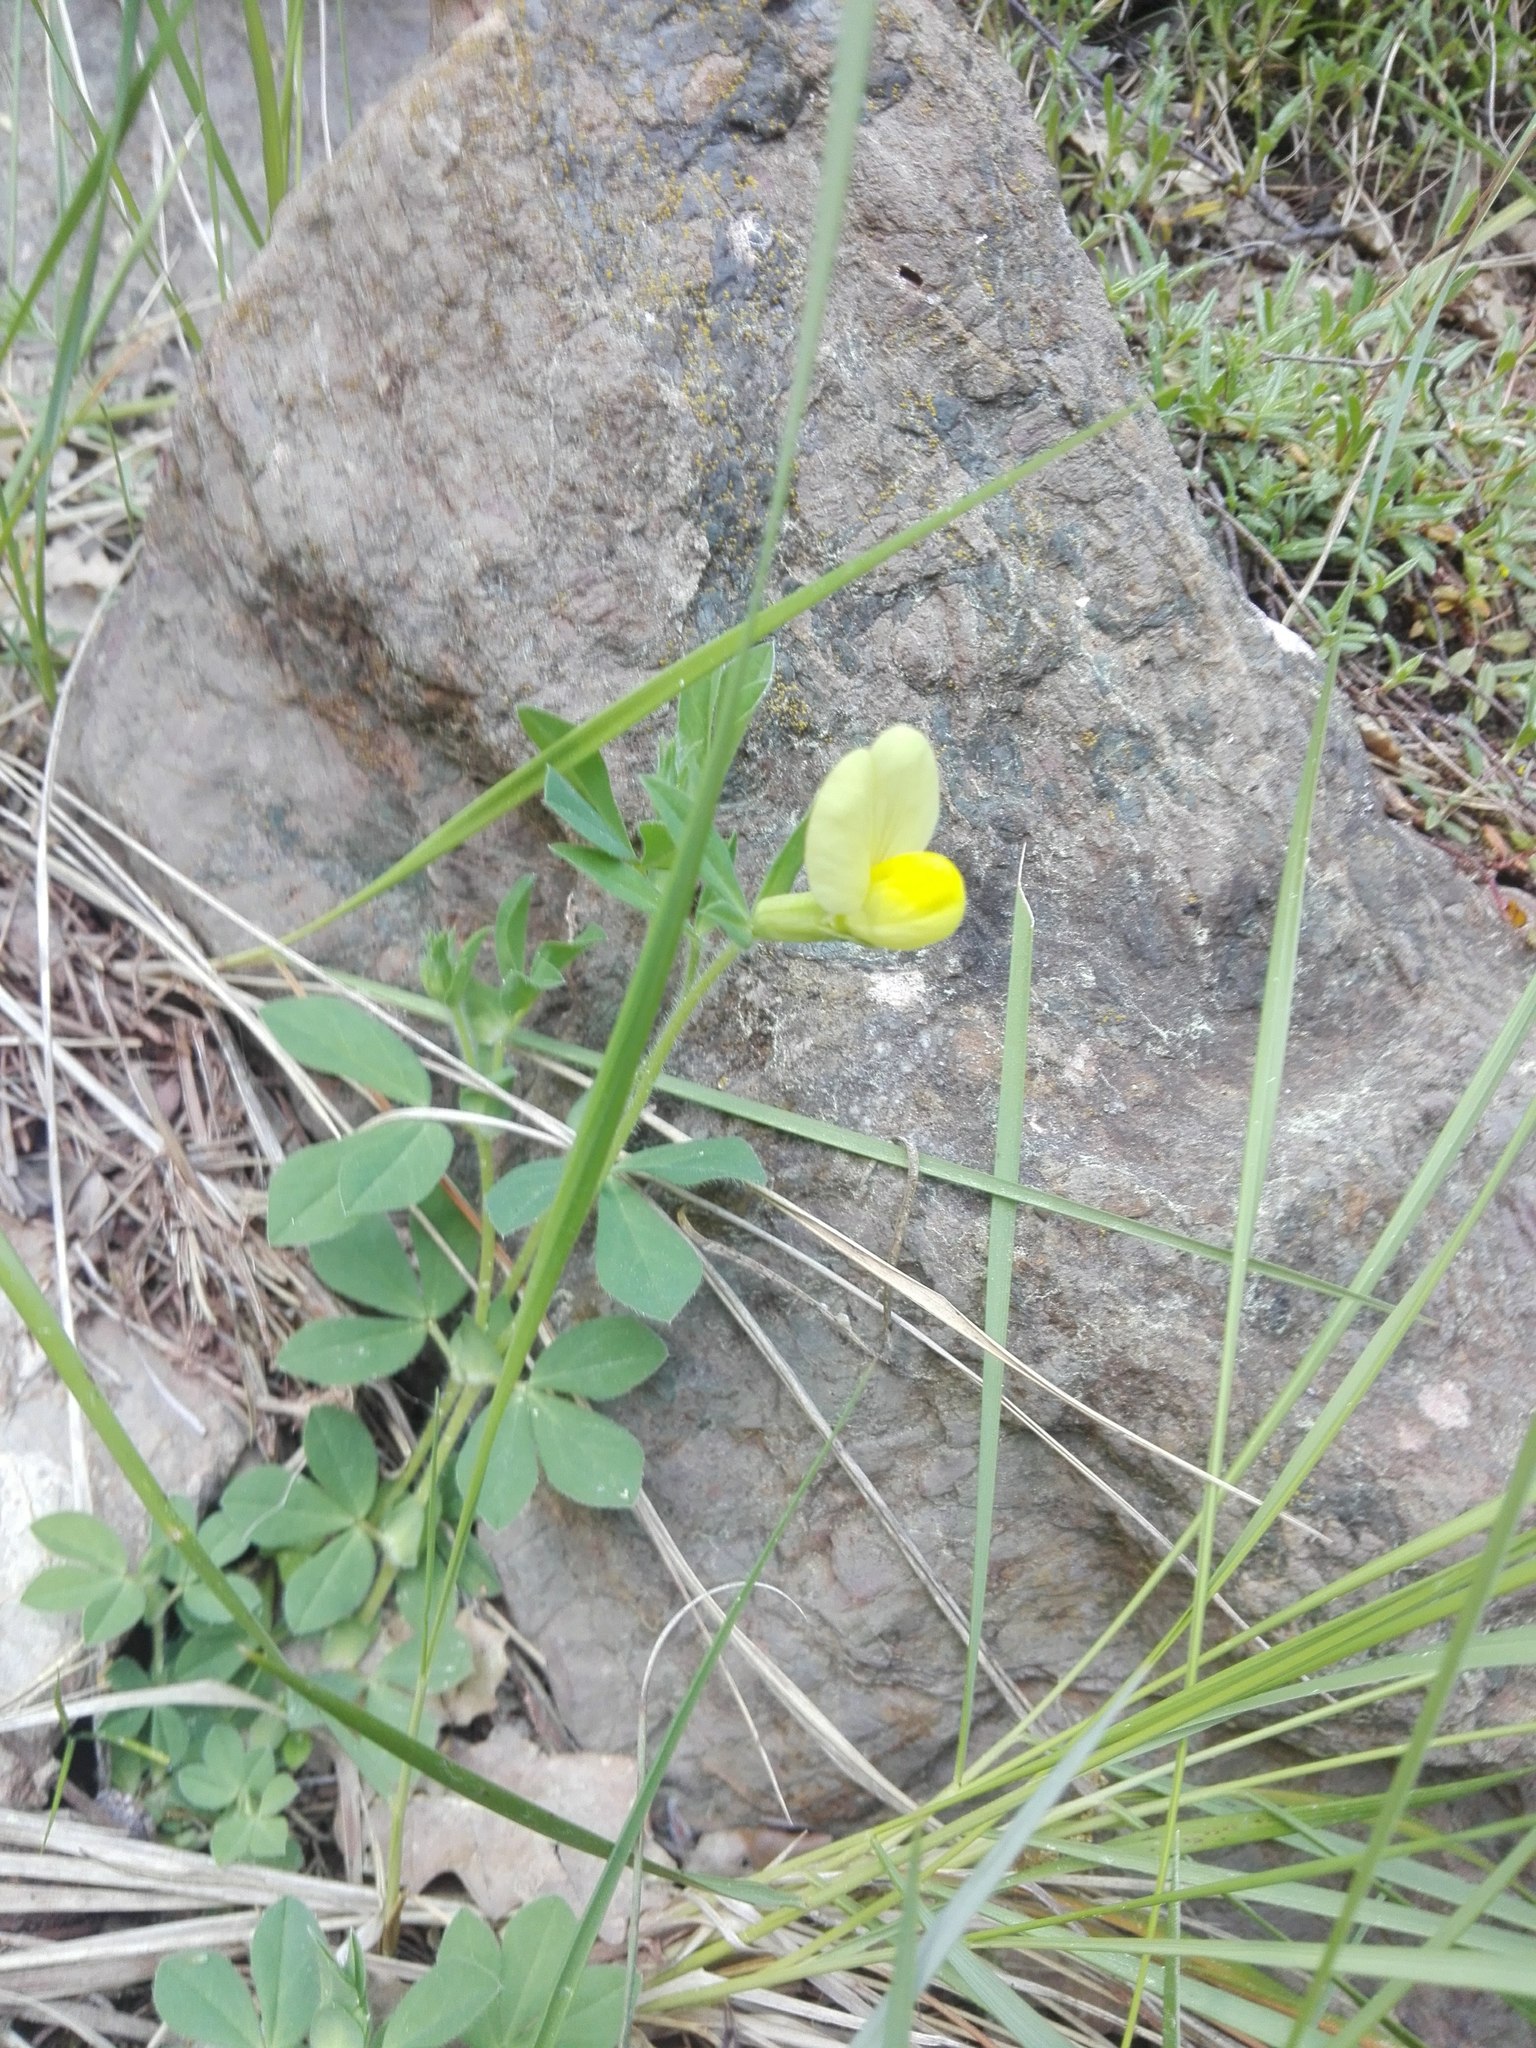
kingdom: Plantae
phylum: Tracheophyta
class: Magnoliopsida
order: Fabales
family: Fabaceae
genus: Lotus
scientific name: Lotus maritimus
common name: Dragon's-teeth
